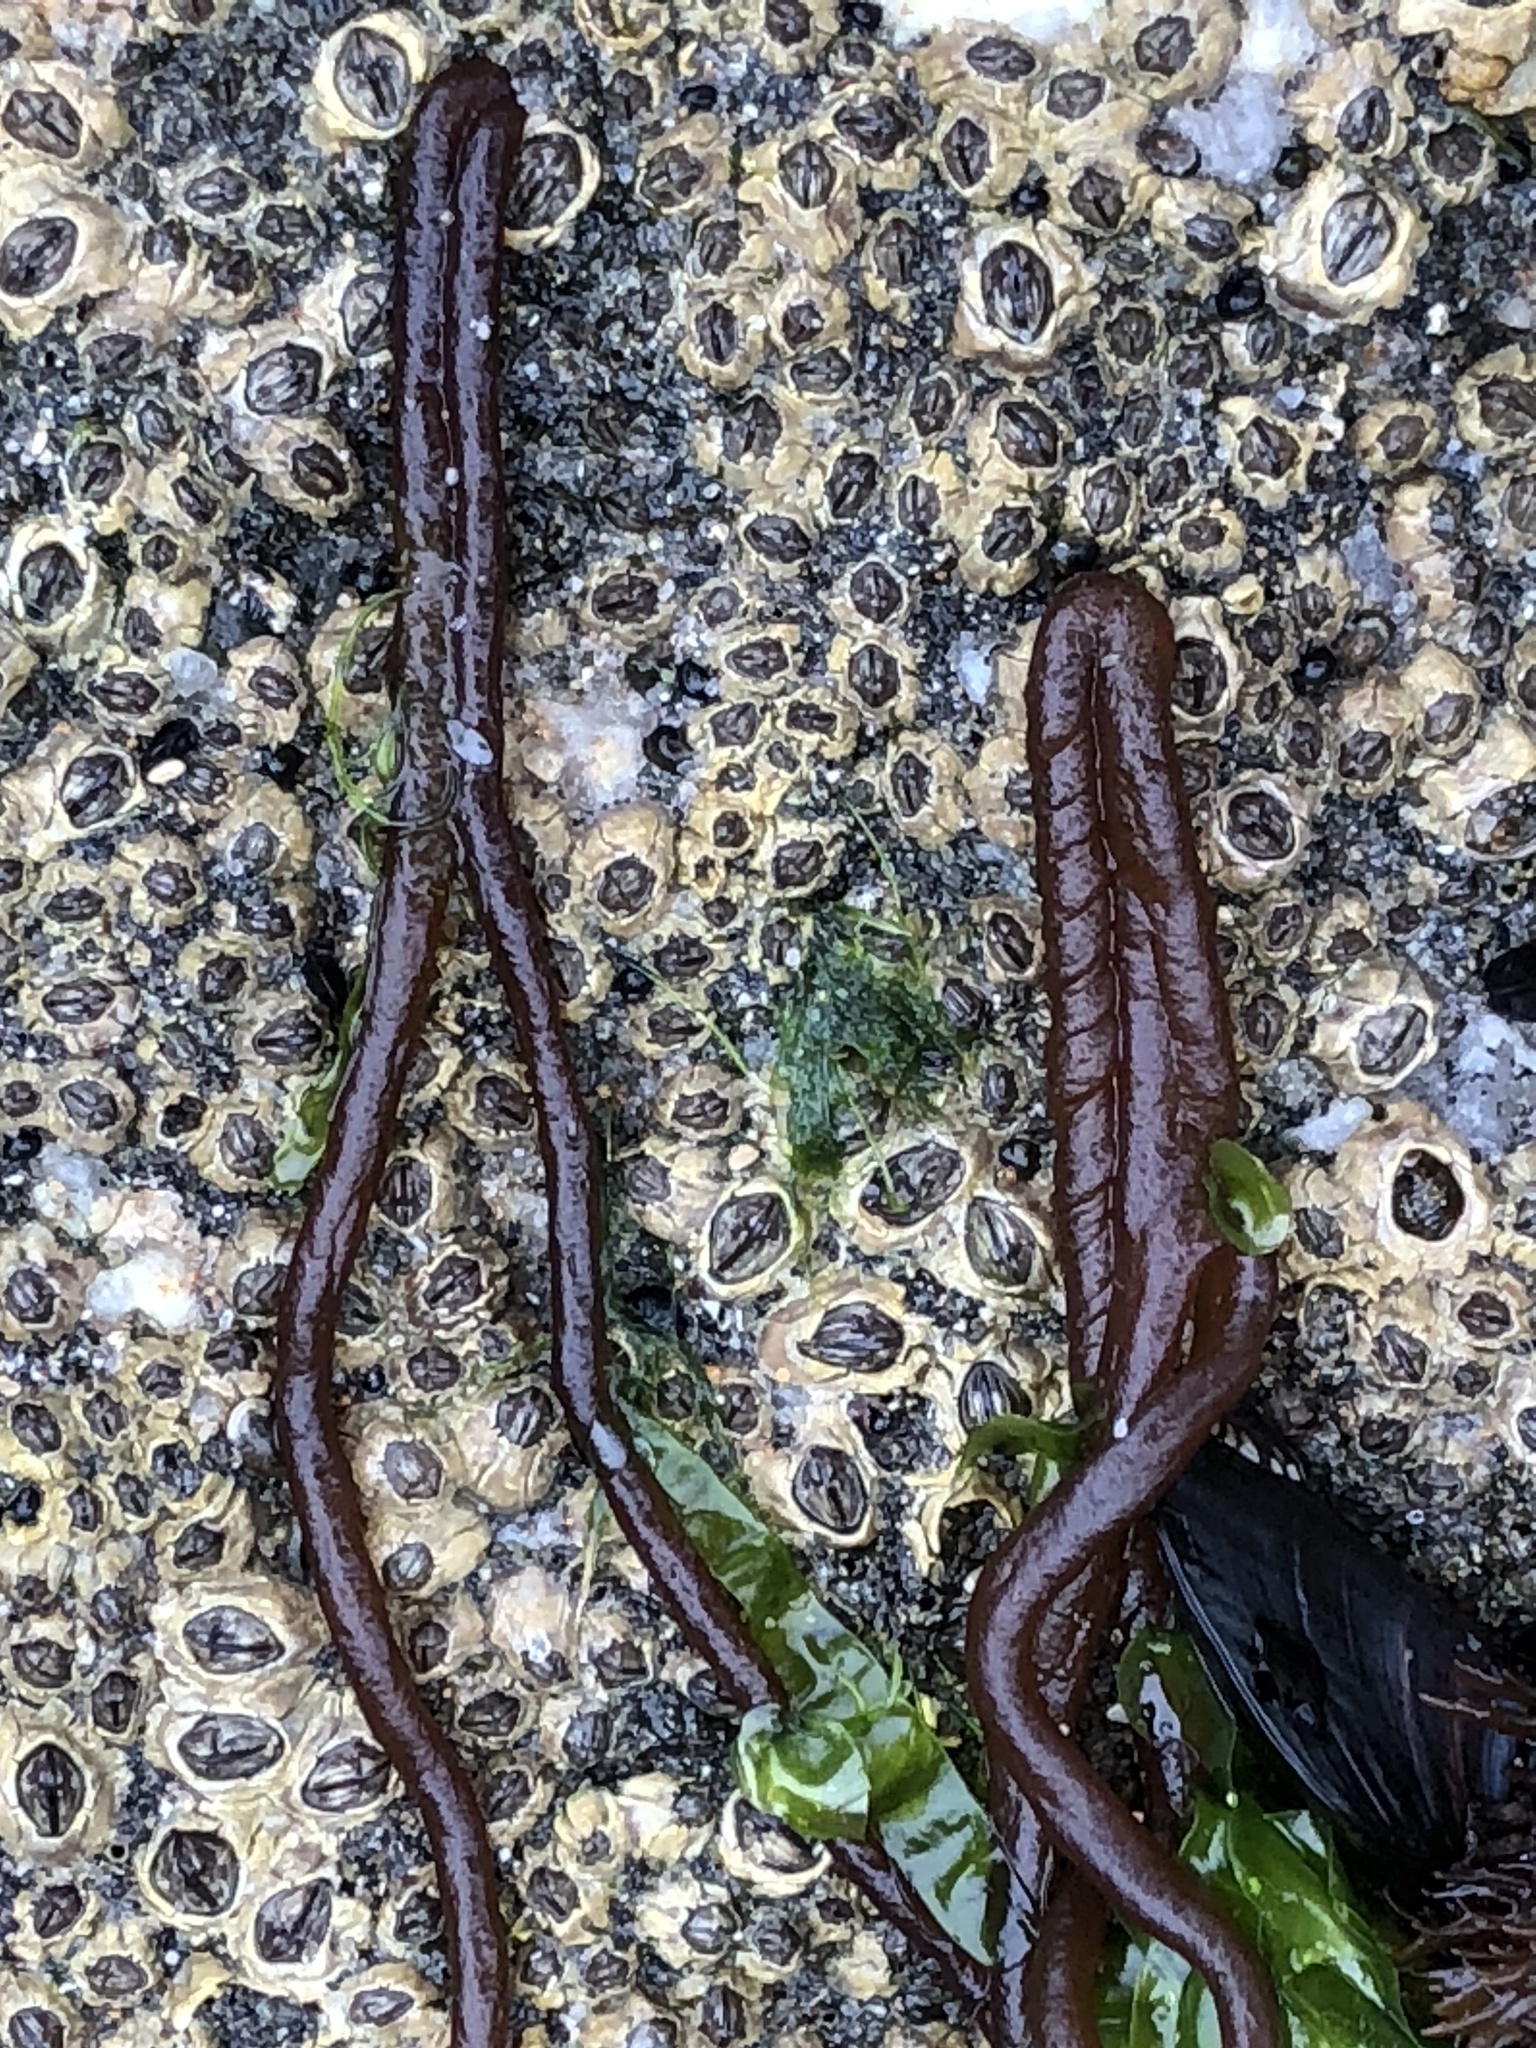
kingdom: Plantae
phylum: Rhodophyta
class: Florideophyceae
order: Nemaliales
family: Nemaliaceae
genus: Nemalion
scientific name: Nemalion elminthoides
